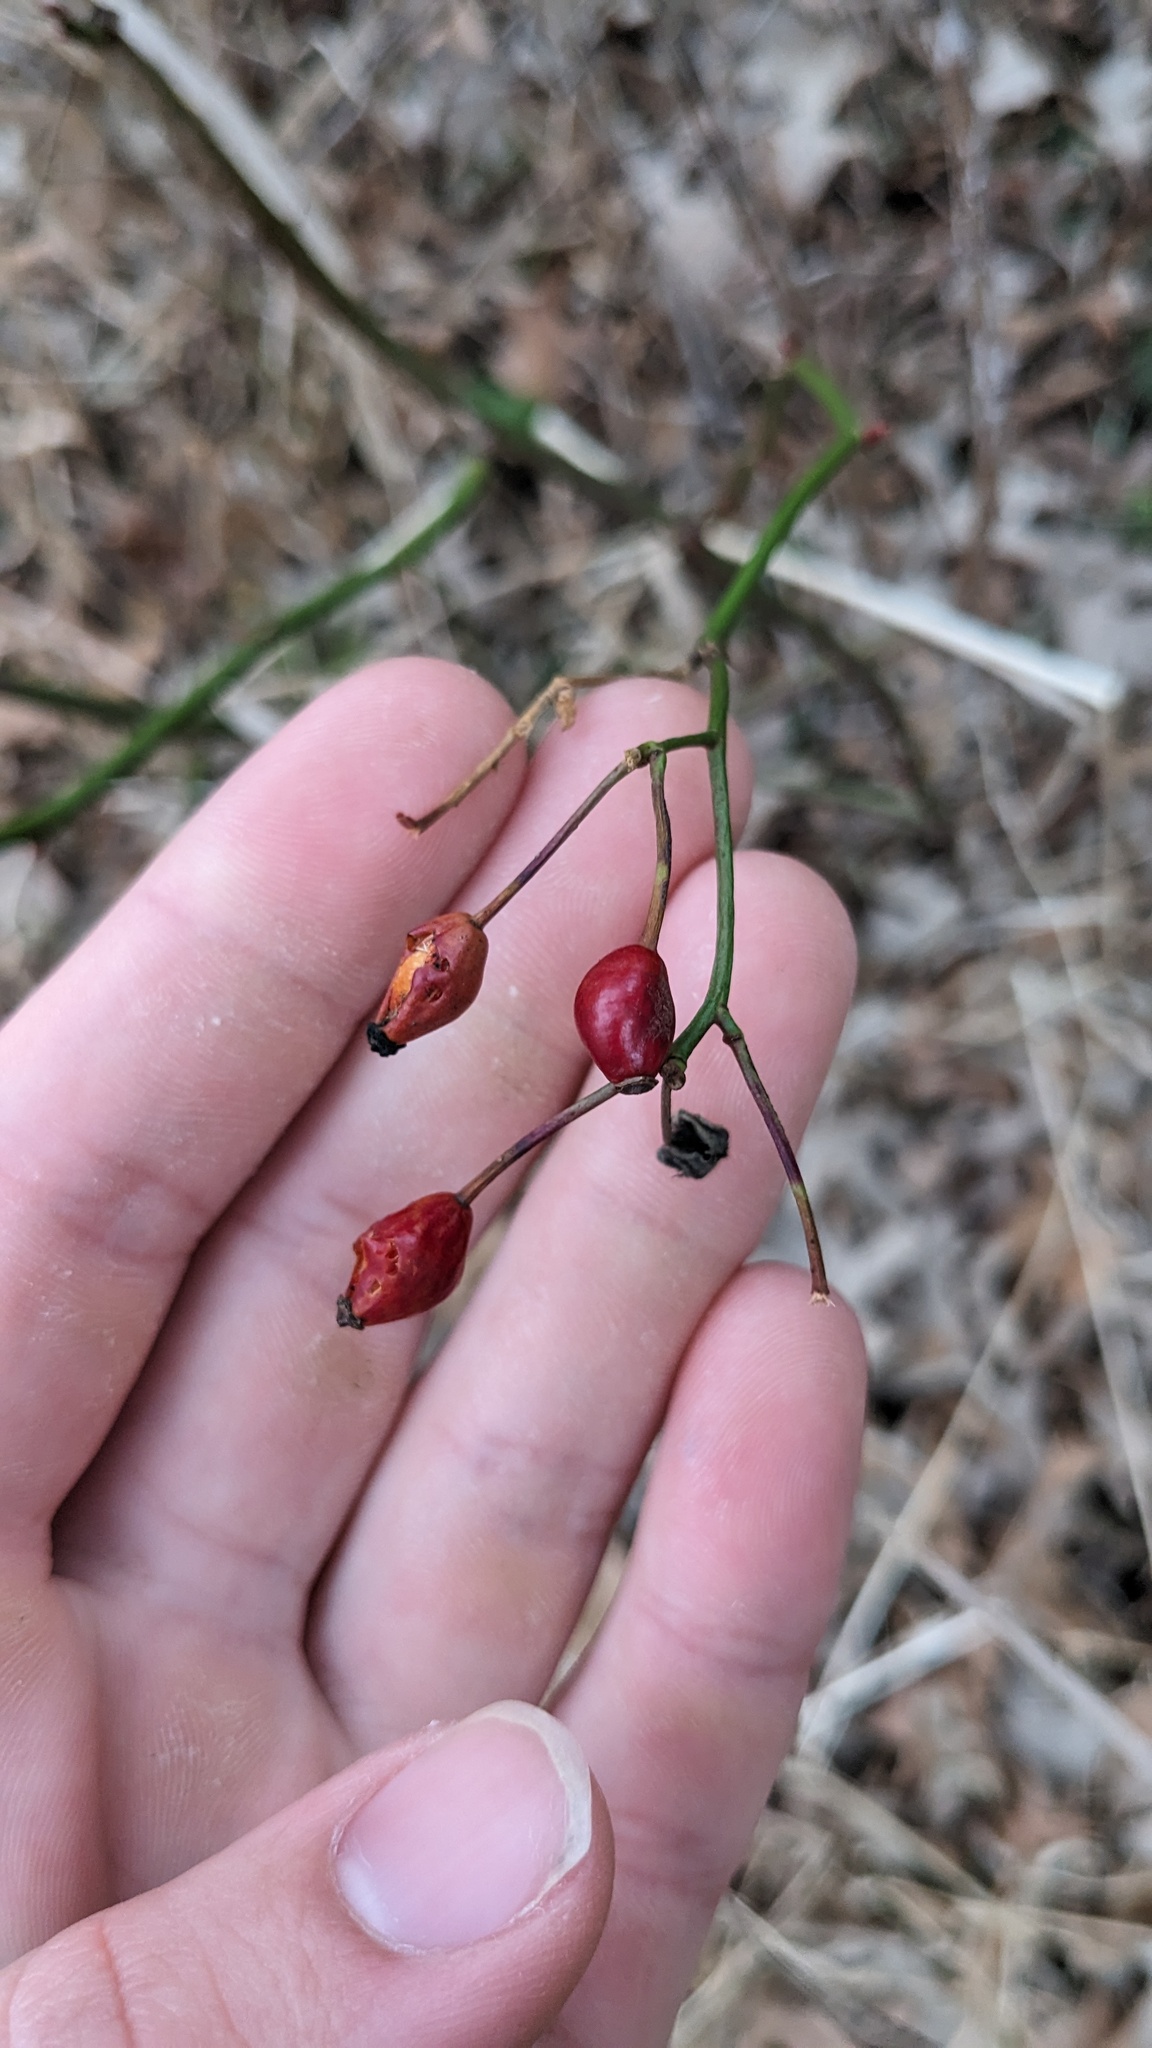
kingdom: Plantae
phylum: Tracheophyta
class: Magnoliopsida
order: Rosales
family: Rosaceae
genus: Rosa
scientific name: Rosa multiflora
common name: Multiflora rose
